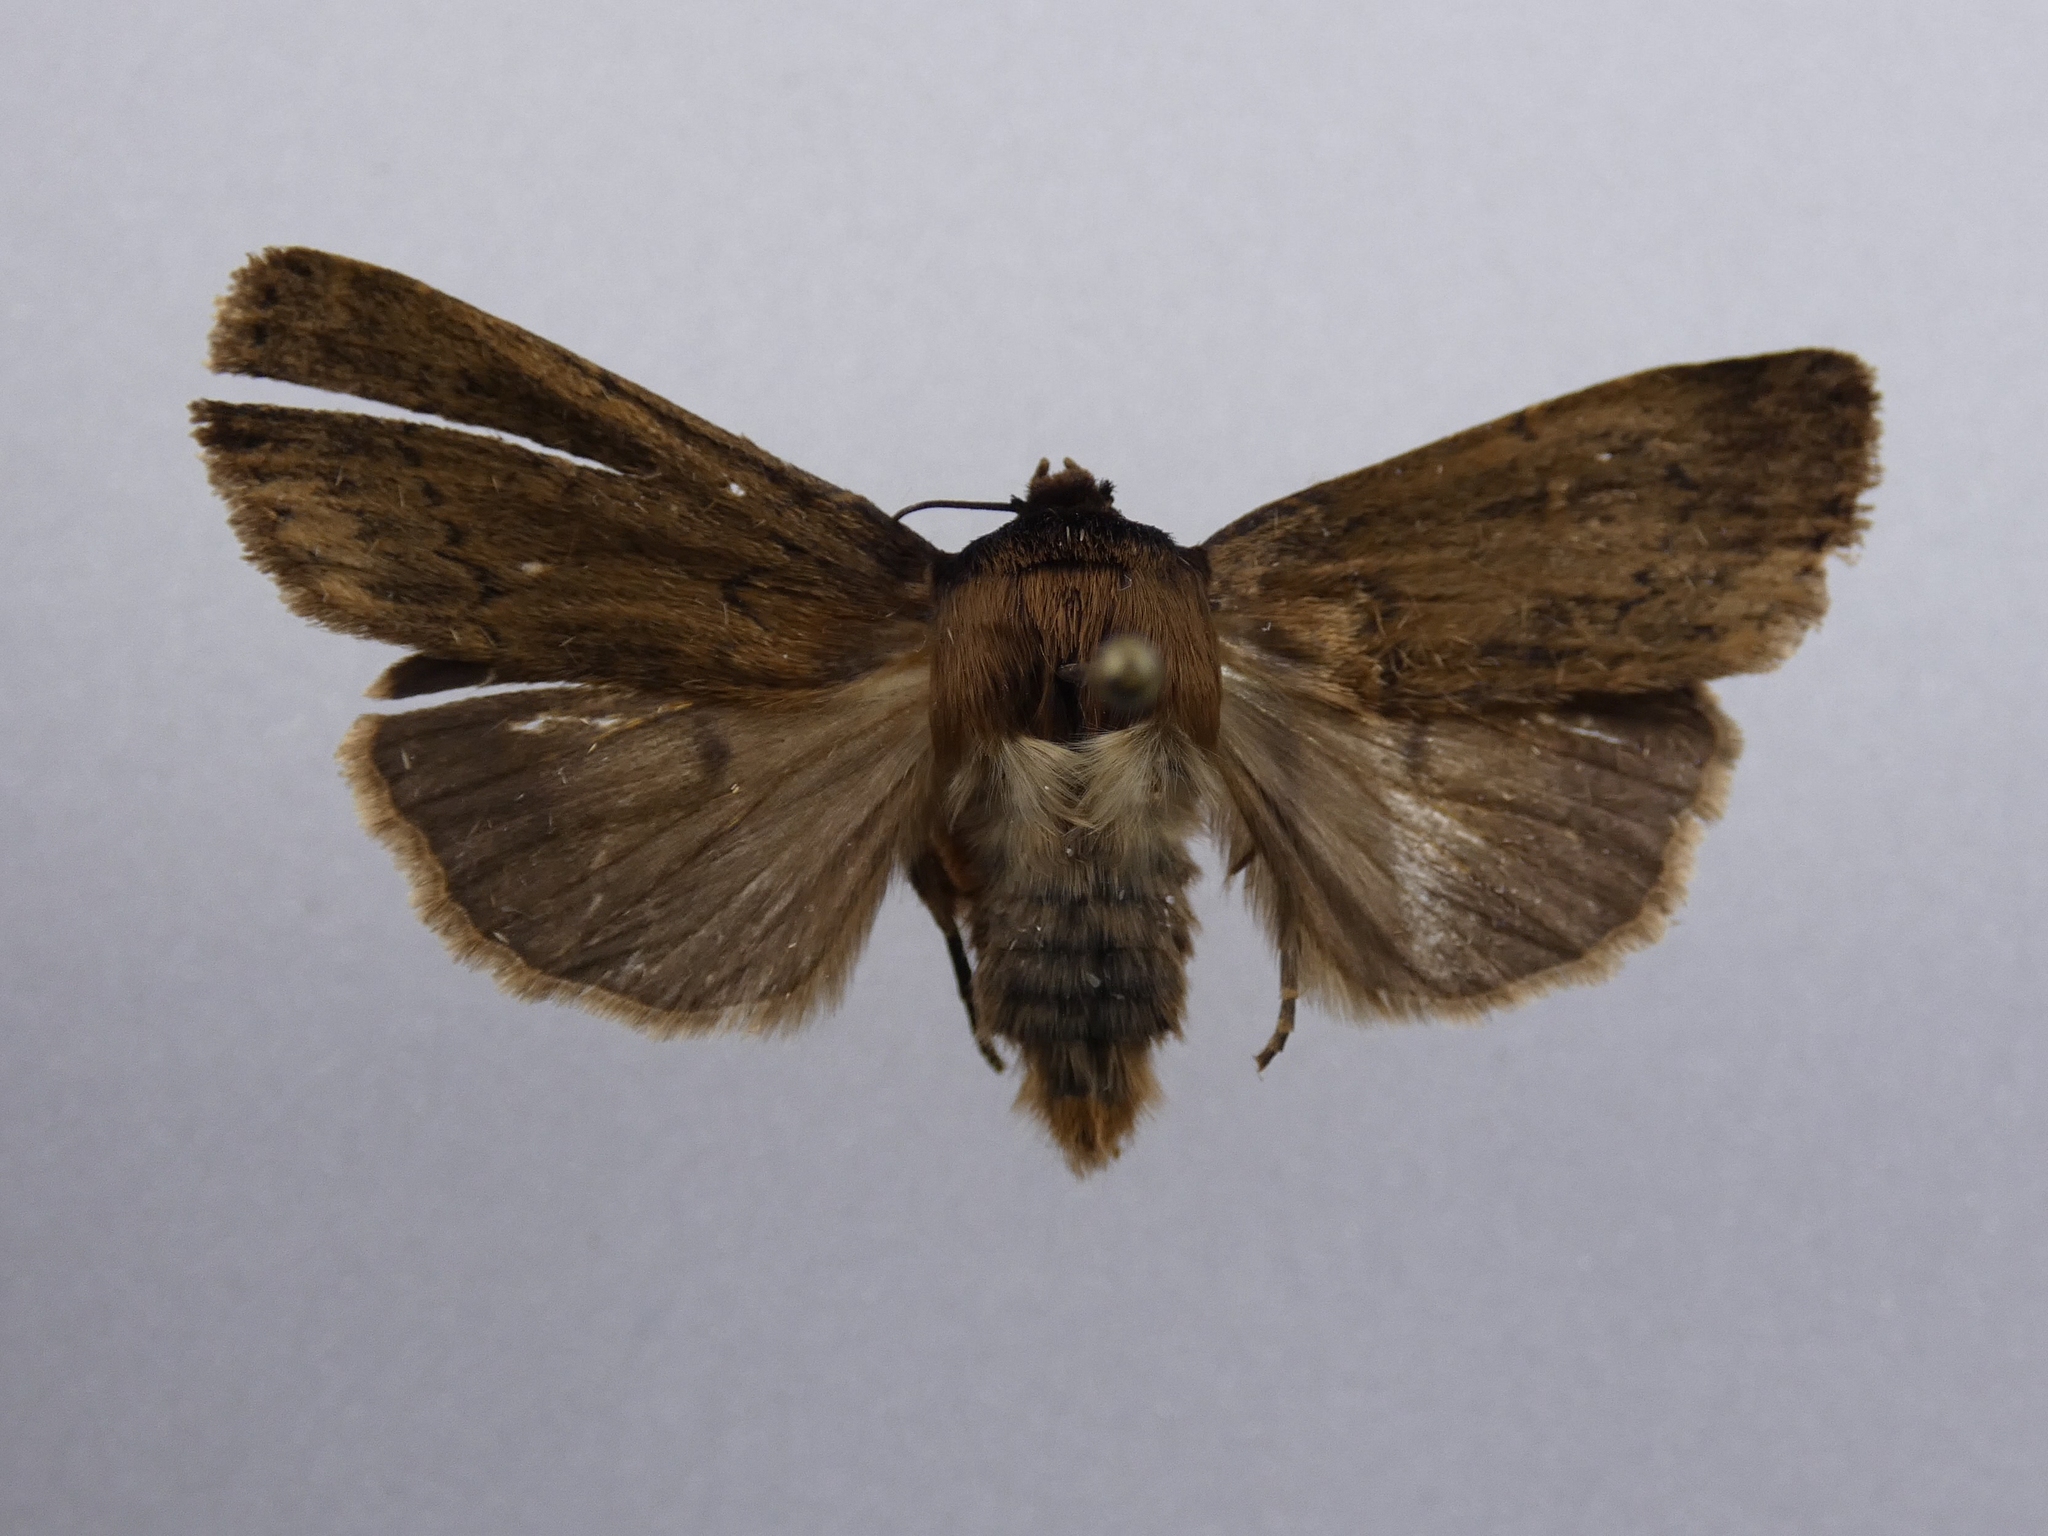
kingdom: Animalia
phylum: Arthropoda
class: Insecta
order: Lepidoptera
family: Noctuidae
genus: Bityla
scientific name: Bityla defigurata
